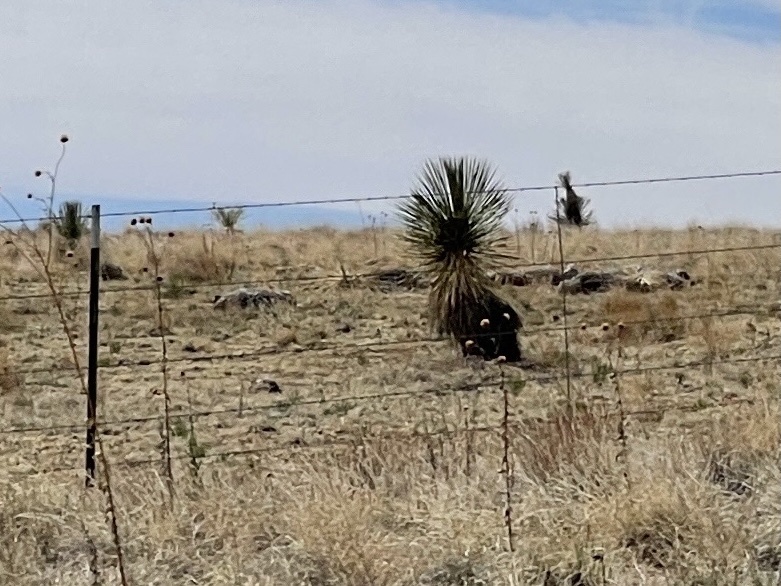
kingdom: Plantae
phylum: Tracheophyta
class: Liliopsida
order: Asparagales
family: Asparagaceae
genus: Yucca
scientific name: Yucca elata
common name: Palmella
